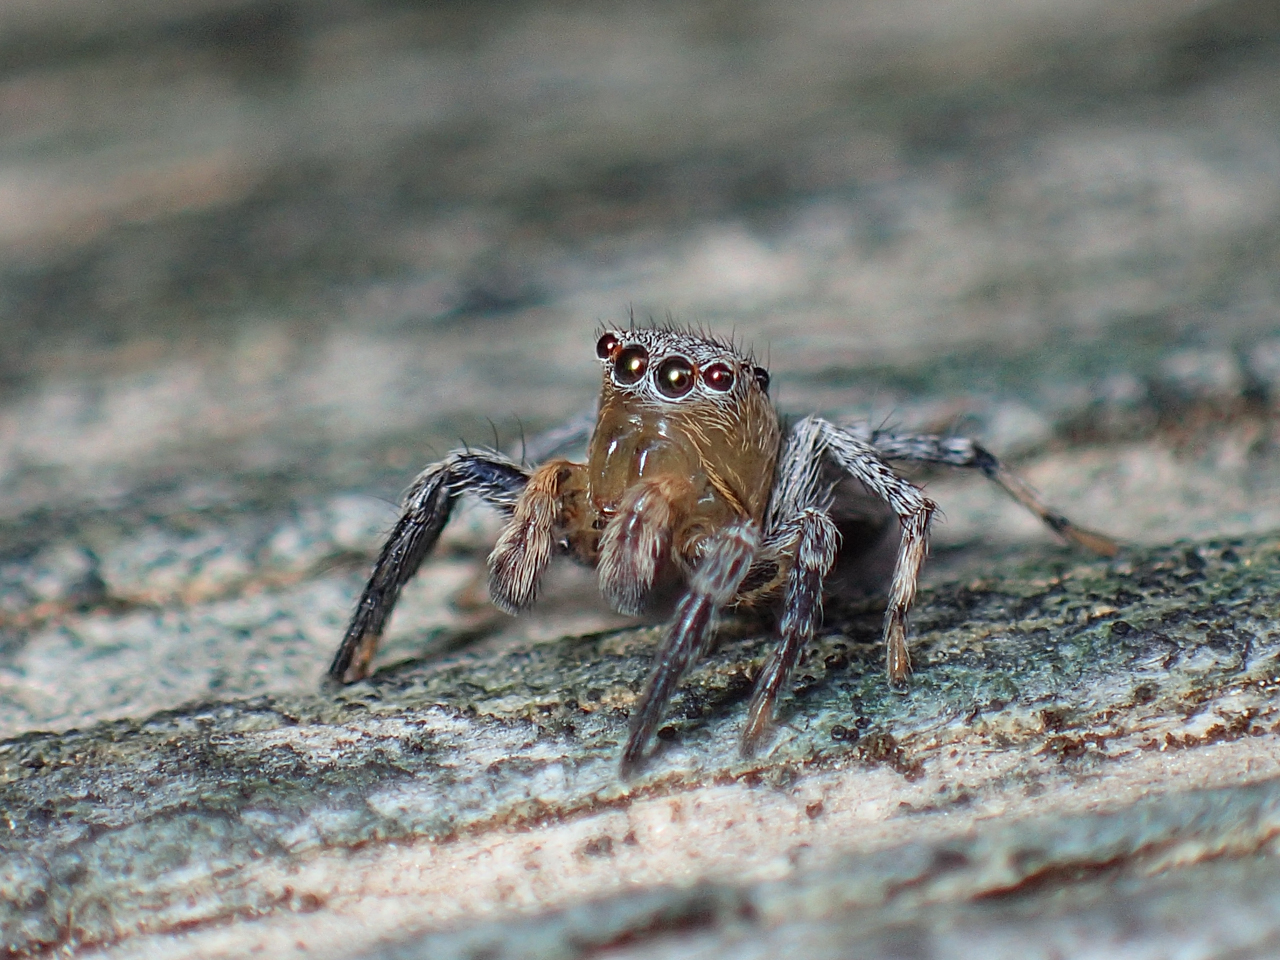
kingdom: Animalia
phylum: Arthropoda
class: Arachnida
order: Araneae
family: Salticidae
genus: Naphrys
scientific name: Naphrys pulex
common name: Flea jumping spider
